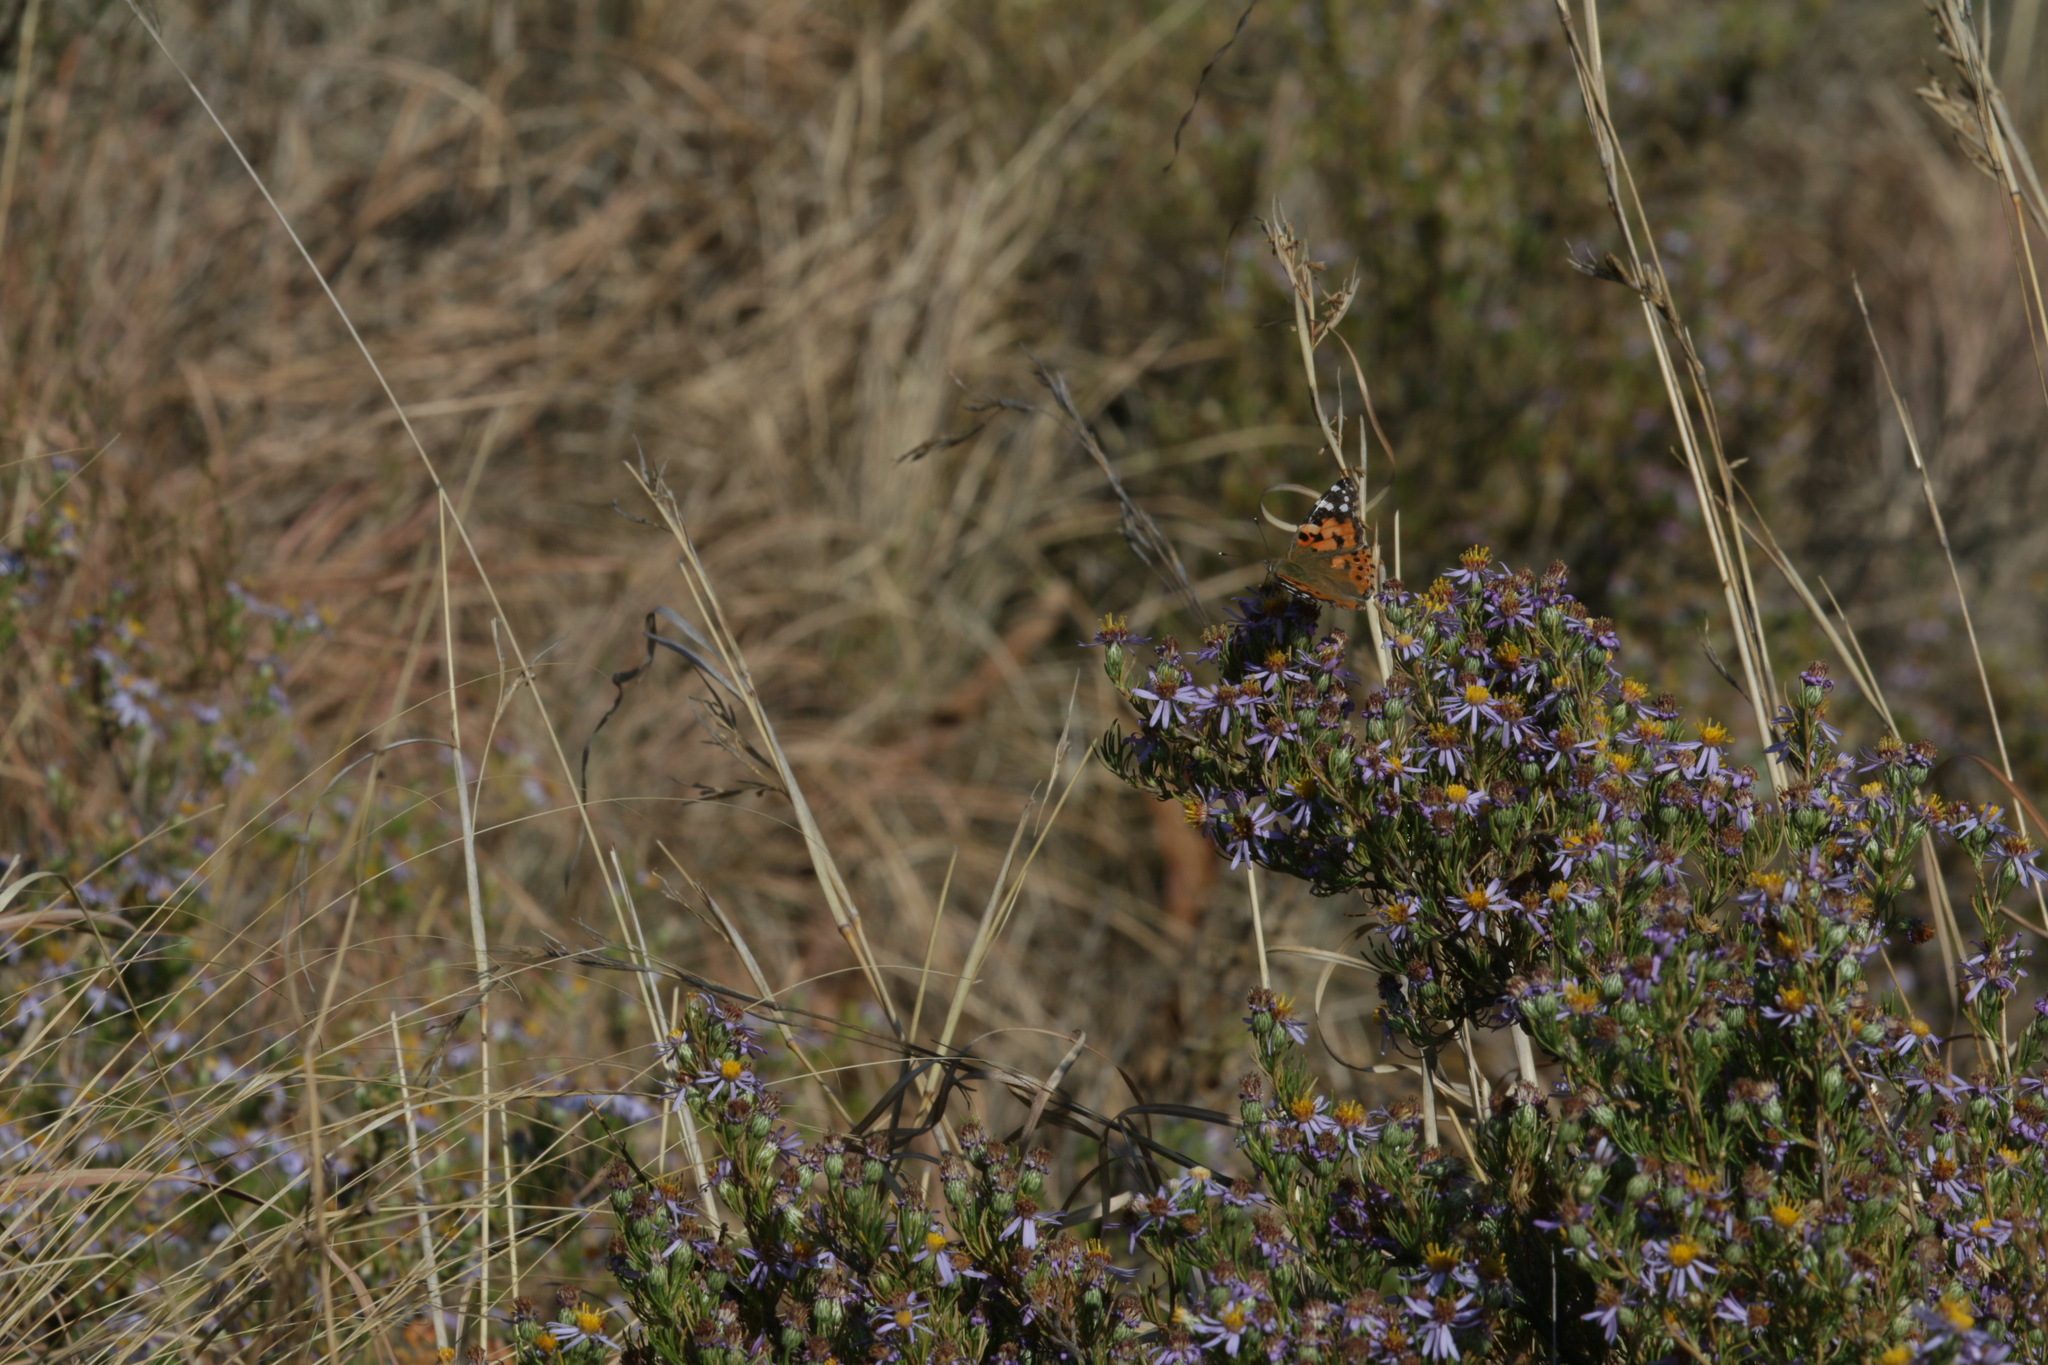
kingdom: Animalia
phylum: Arthropoda
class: Insecta
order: Lepidoptera
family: Nymphalidae
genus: Vanessa
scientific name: Vanessa cardui
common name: Painted lady
